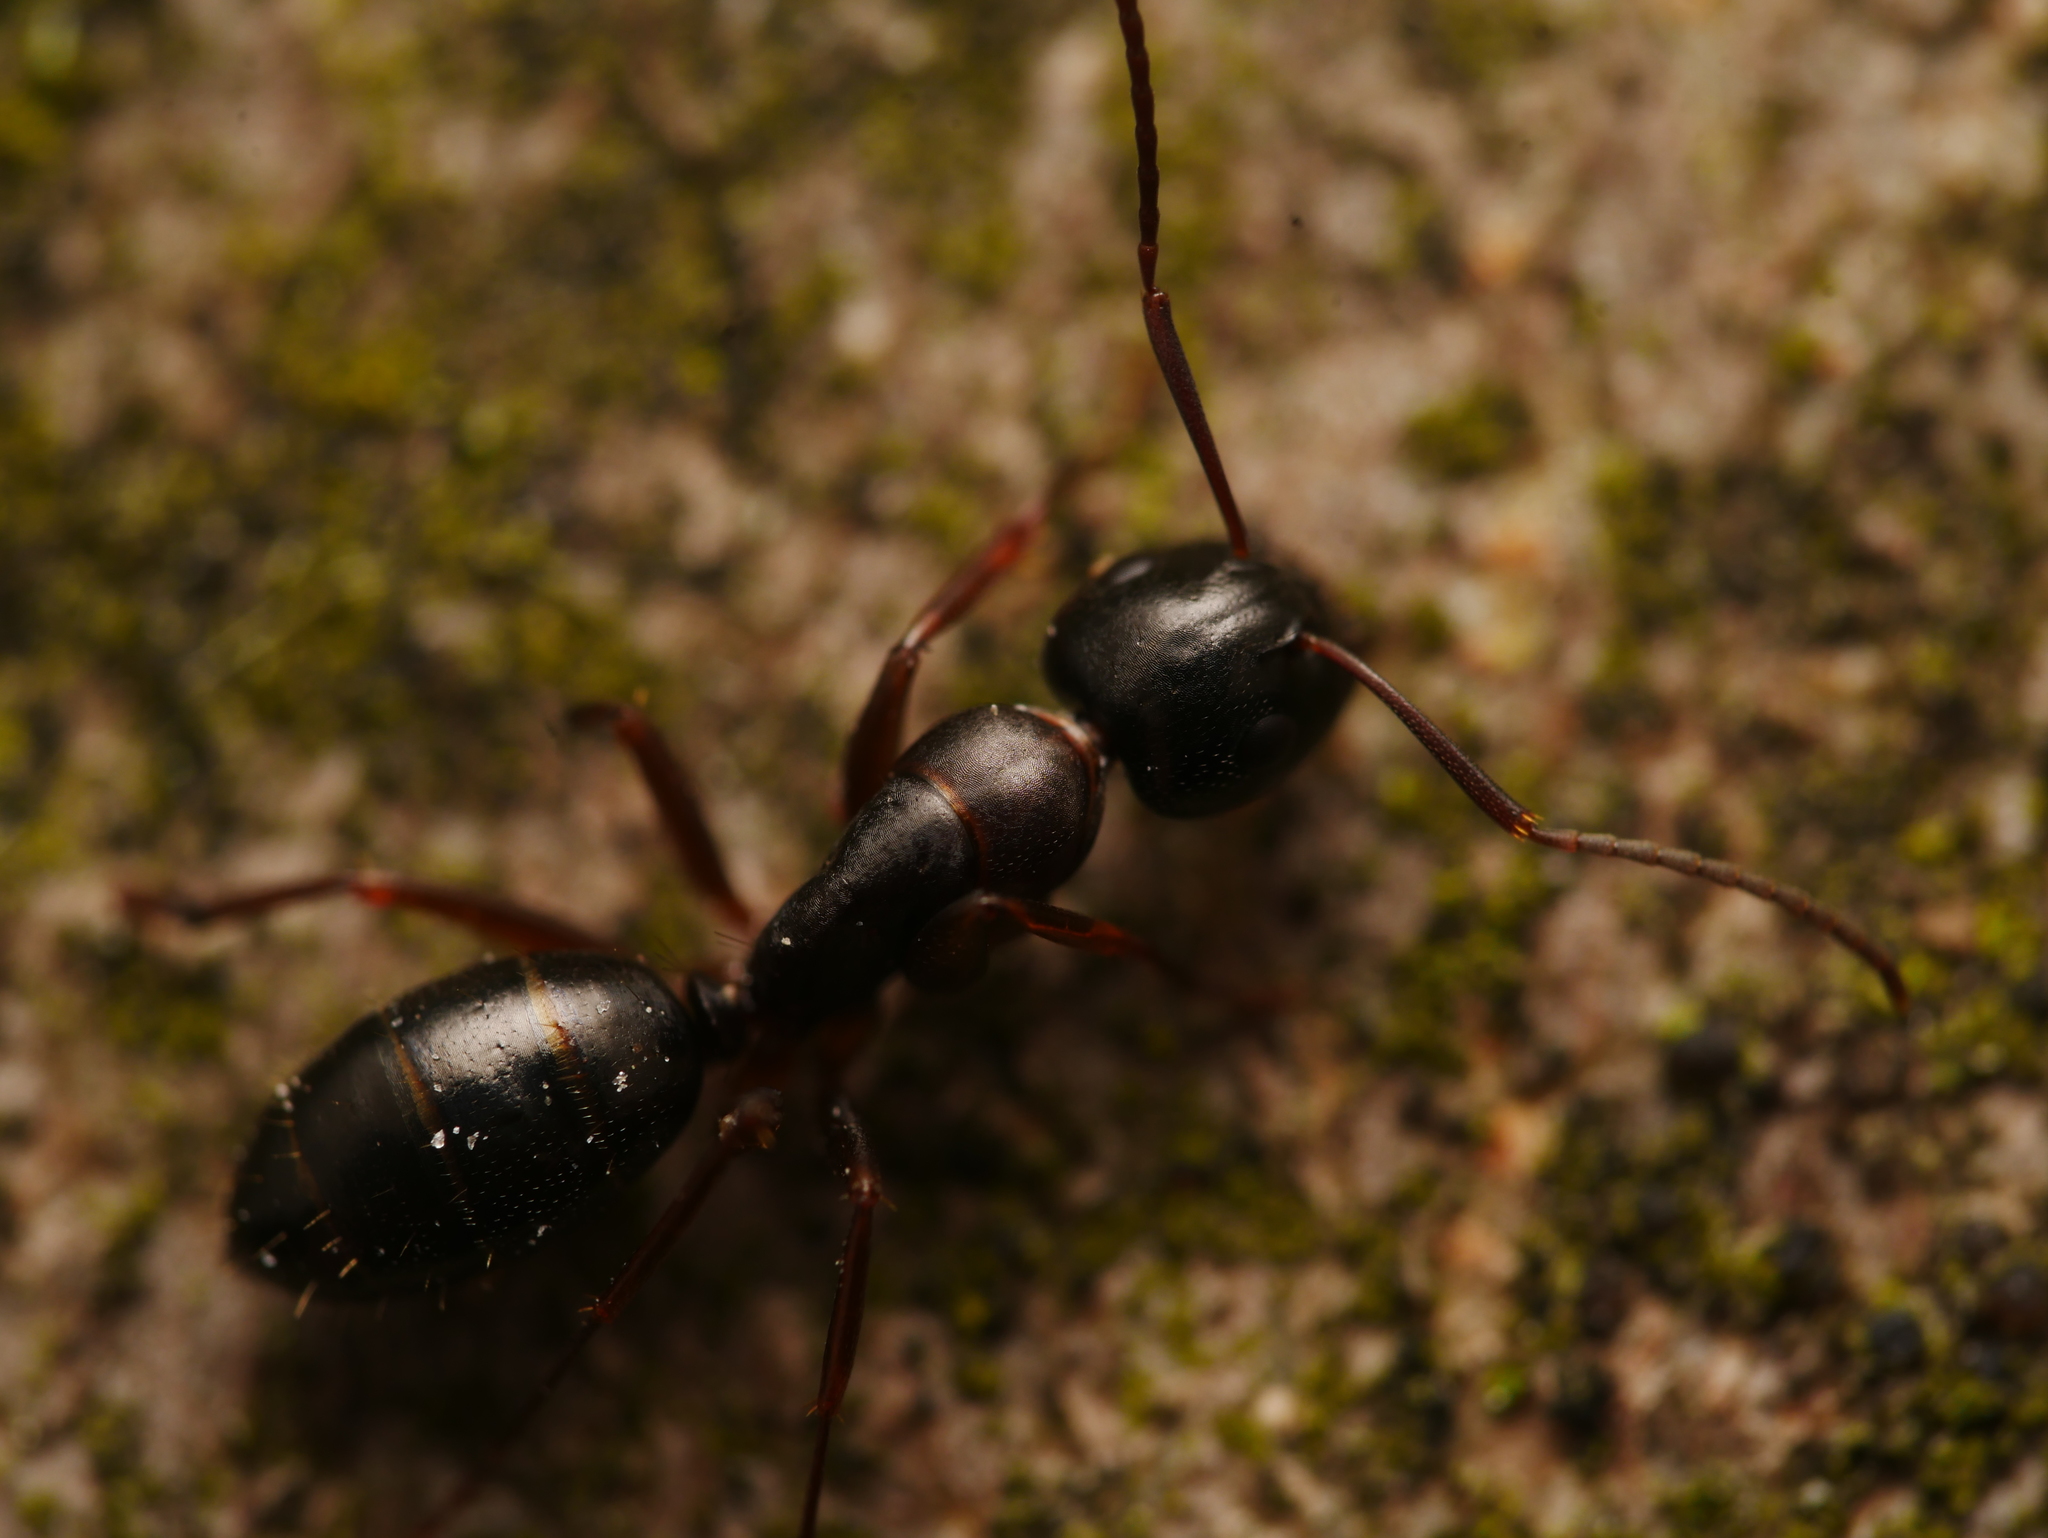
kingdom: Animalia
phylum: Arthropoda
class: Insecta
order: Hymenoptera
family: Formicidae
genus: Camponotus
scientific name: Camponotus fallax
